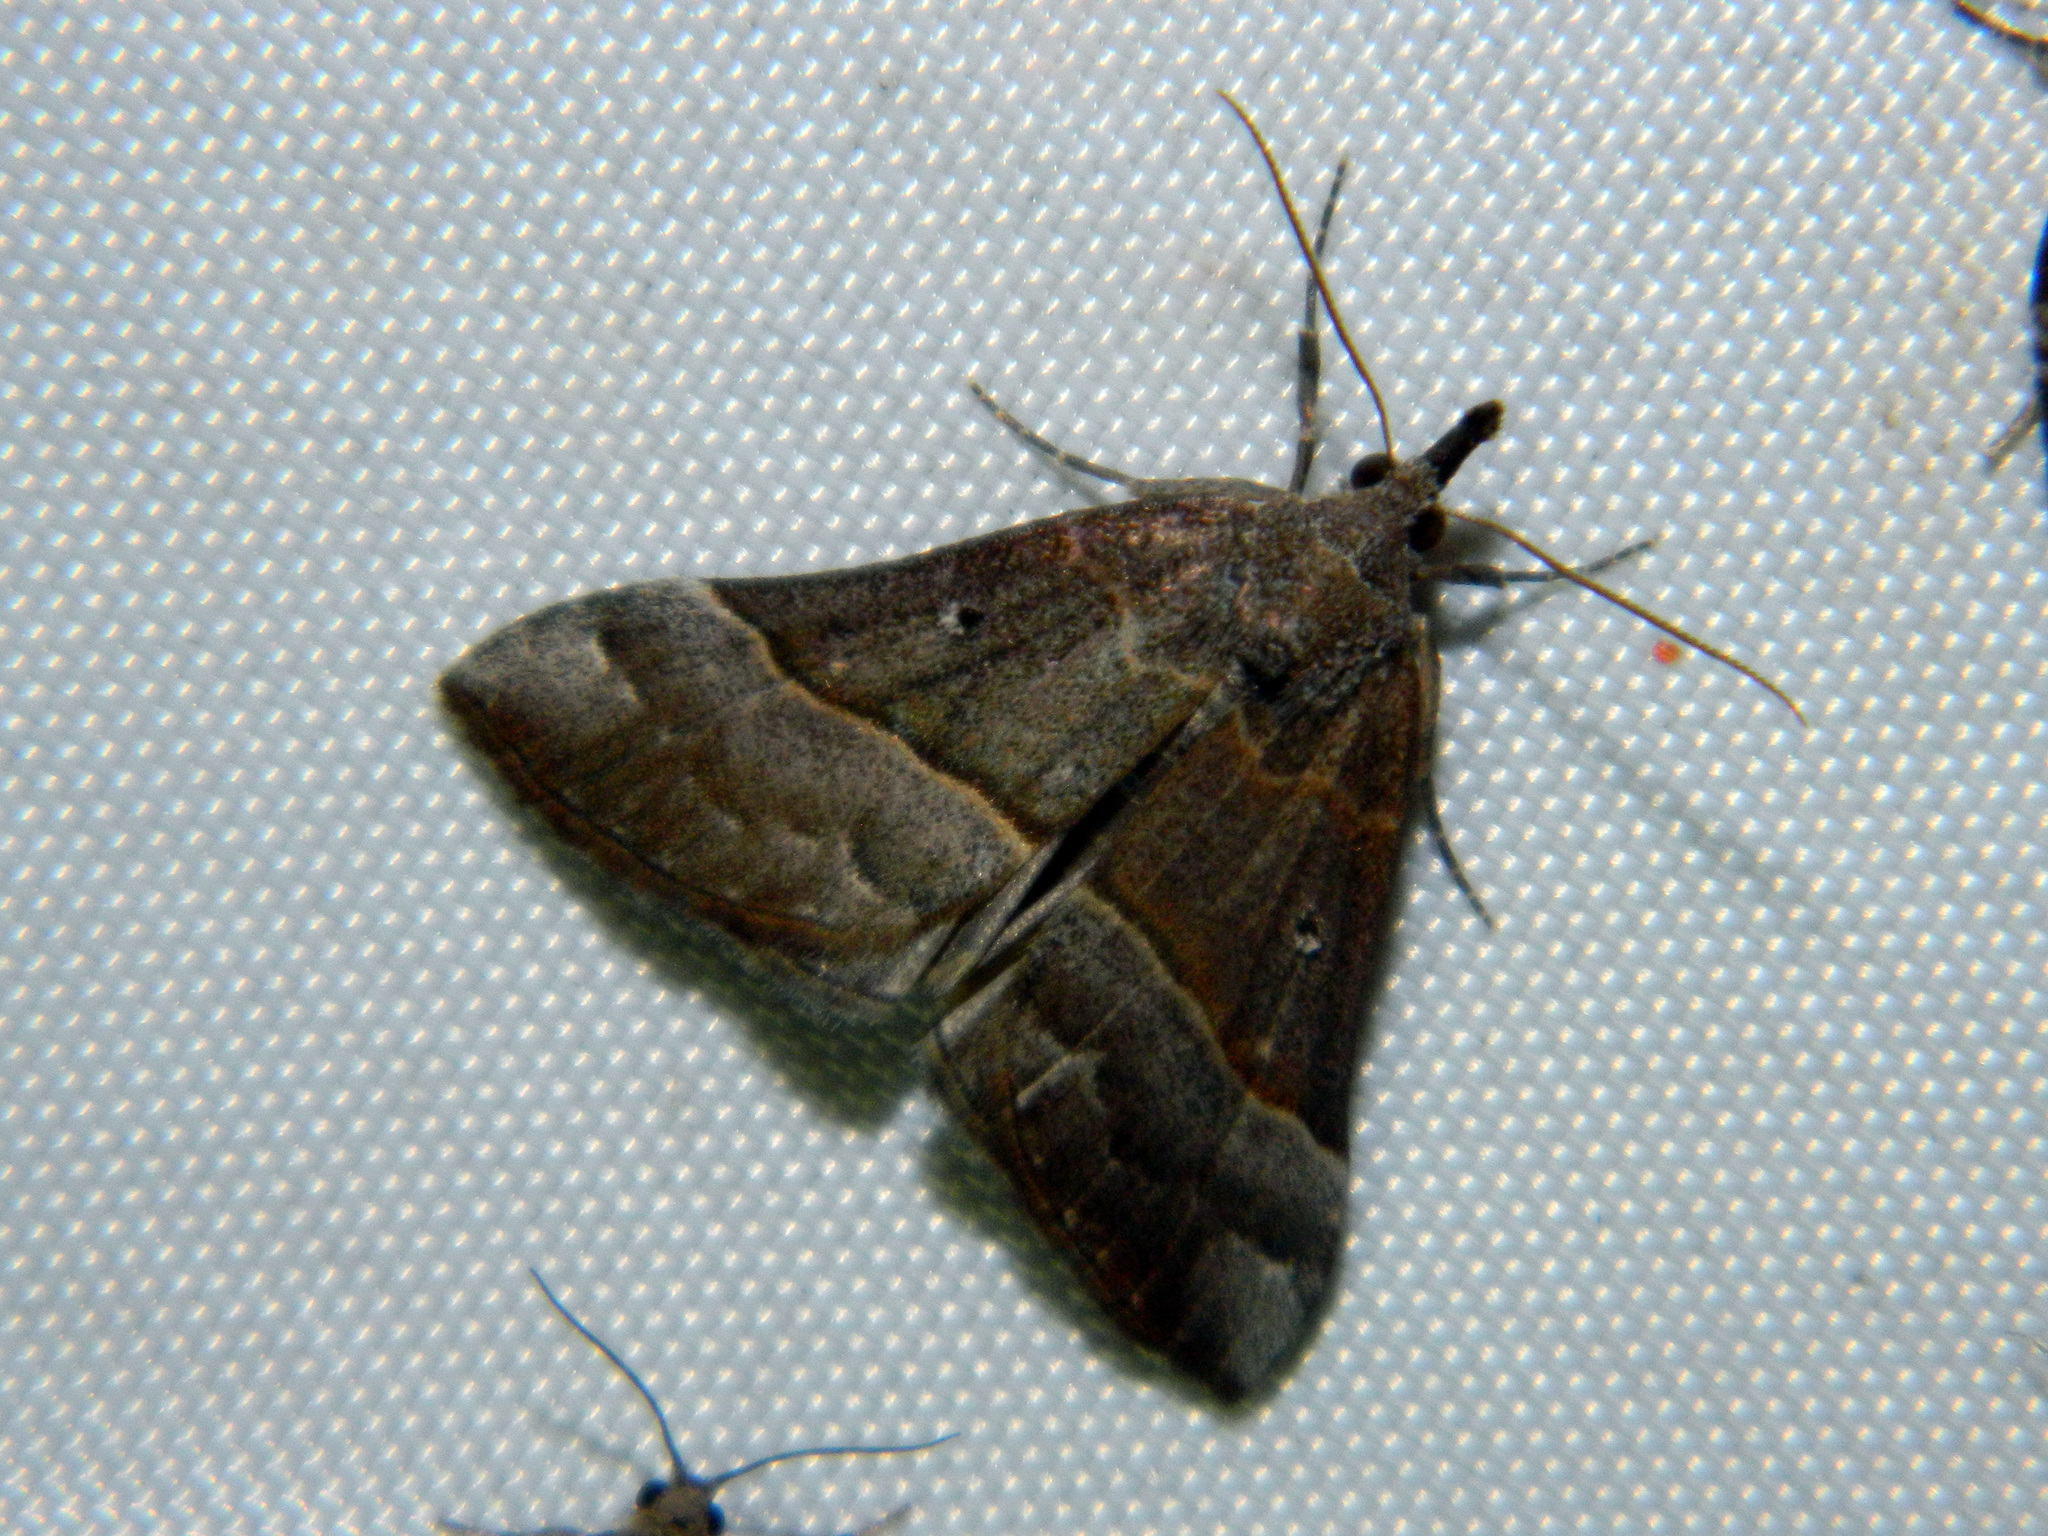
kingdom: Animalia
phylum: Arthropoda
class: Insecta
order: Lepidoptera
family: Erebidae
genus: Hypena
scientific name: Hypena eductalis
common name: Red-footed snout
